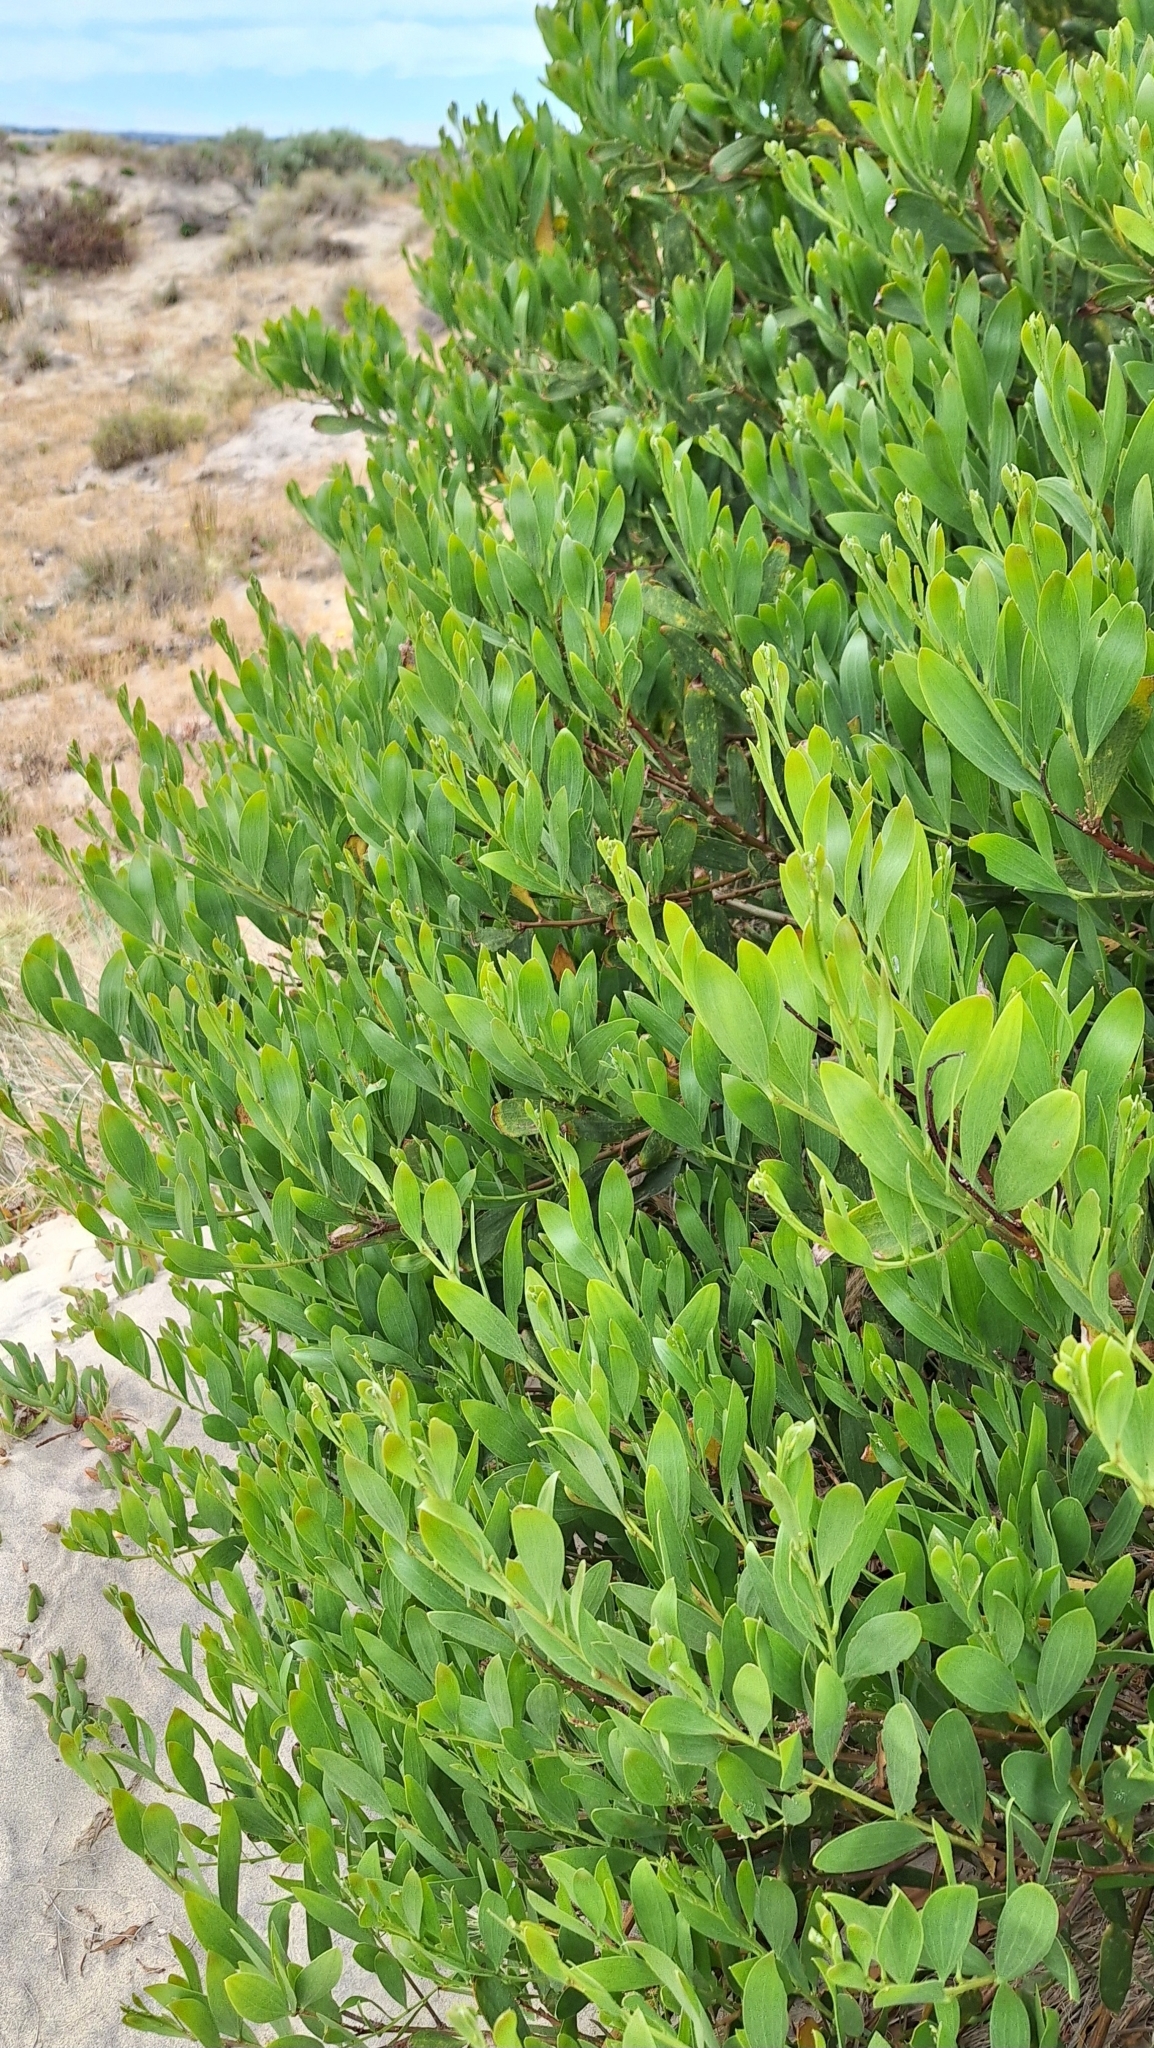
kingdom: Plantae
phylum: Tracheophyta
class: Magnoliopsida
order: Fabales
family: Fabaceae
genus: Acacia
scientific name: Acacia longifolia
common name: Sydney golden wattle
